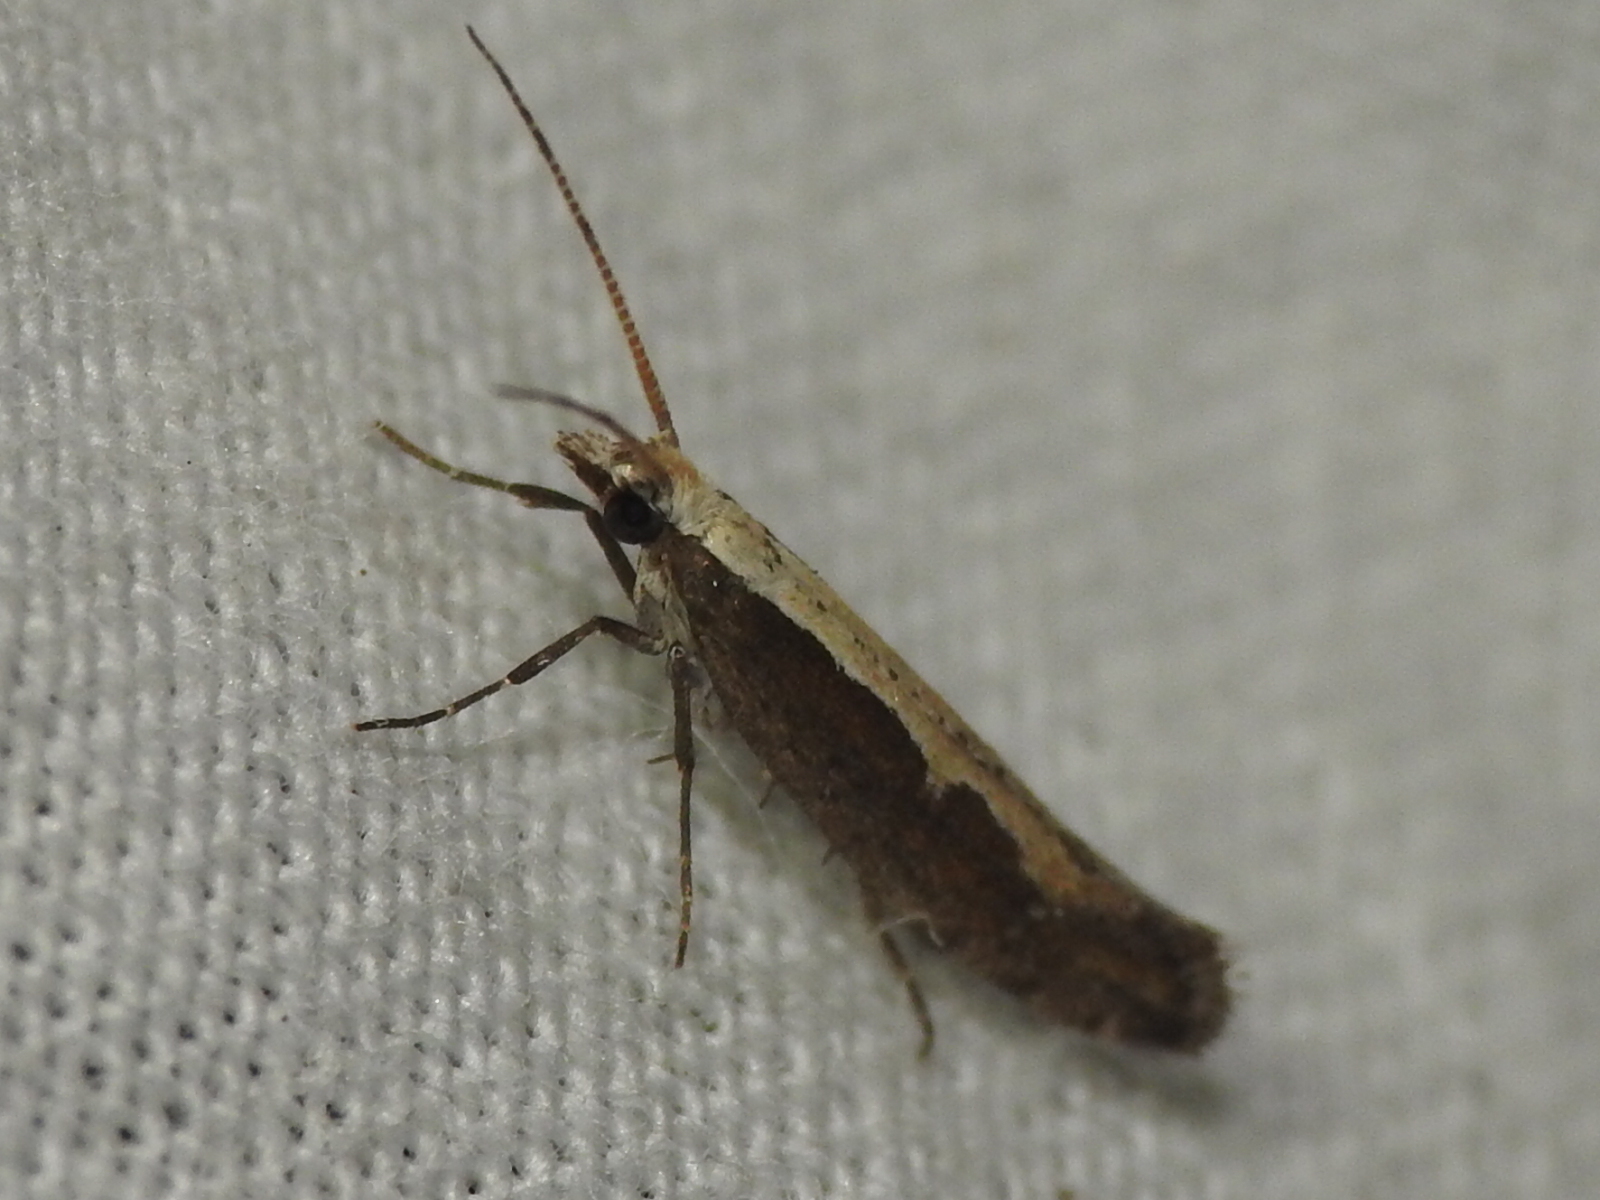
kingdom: Animalia
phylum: Arthropoda
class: Insecta
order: Lepidoptera
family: Plutellidae
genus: Plutella
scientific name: Plutella xylostella
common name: Diamond-back moth
